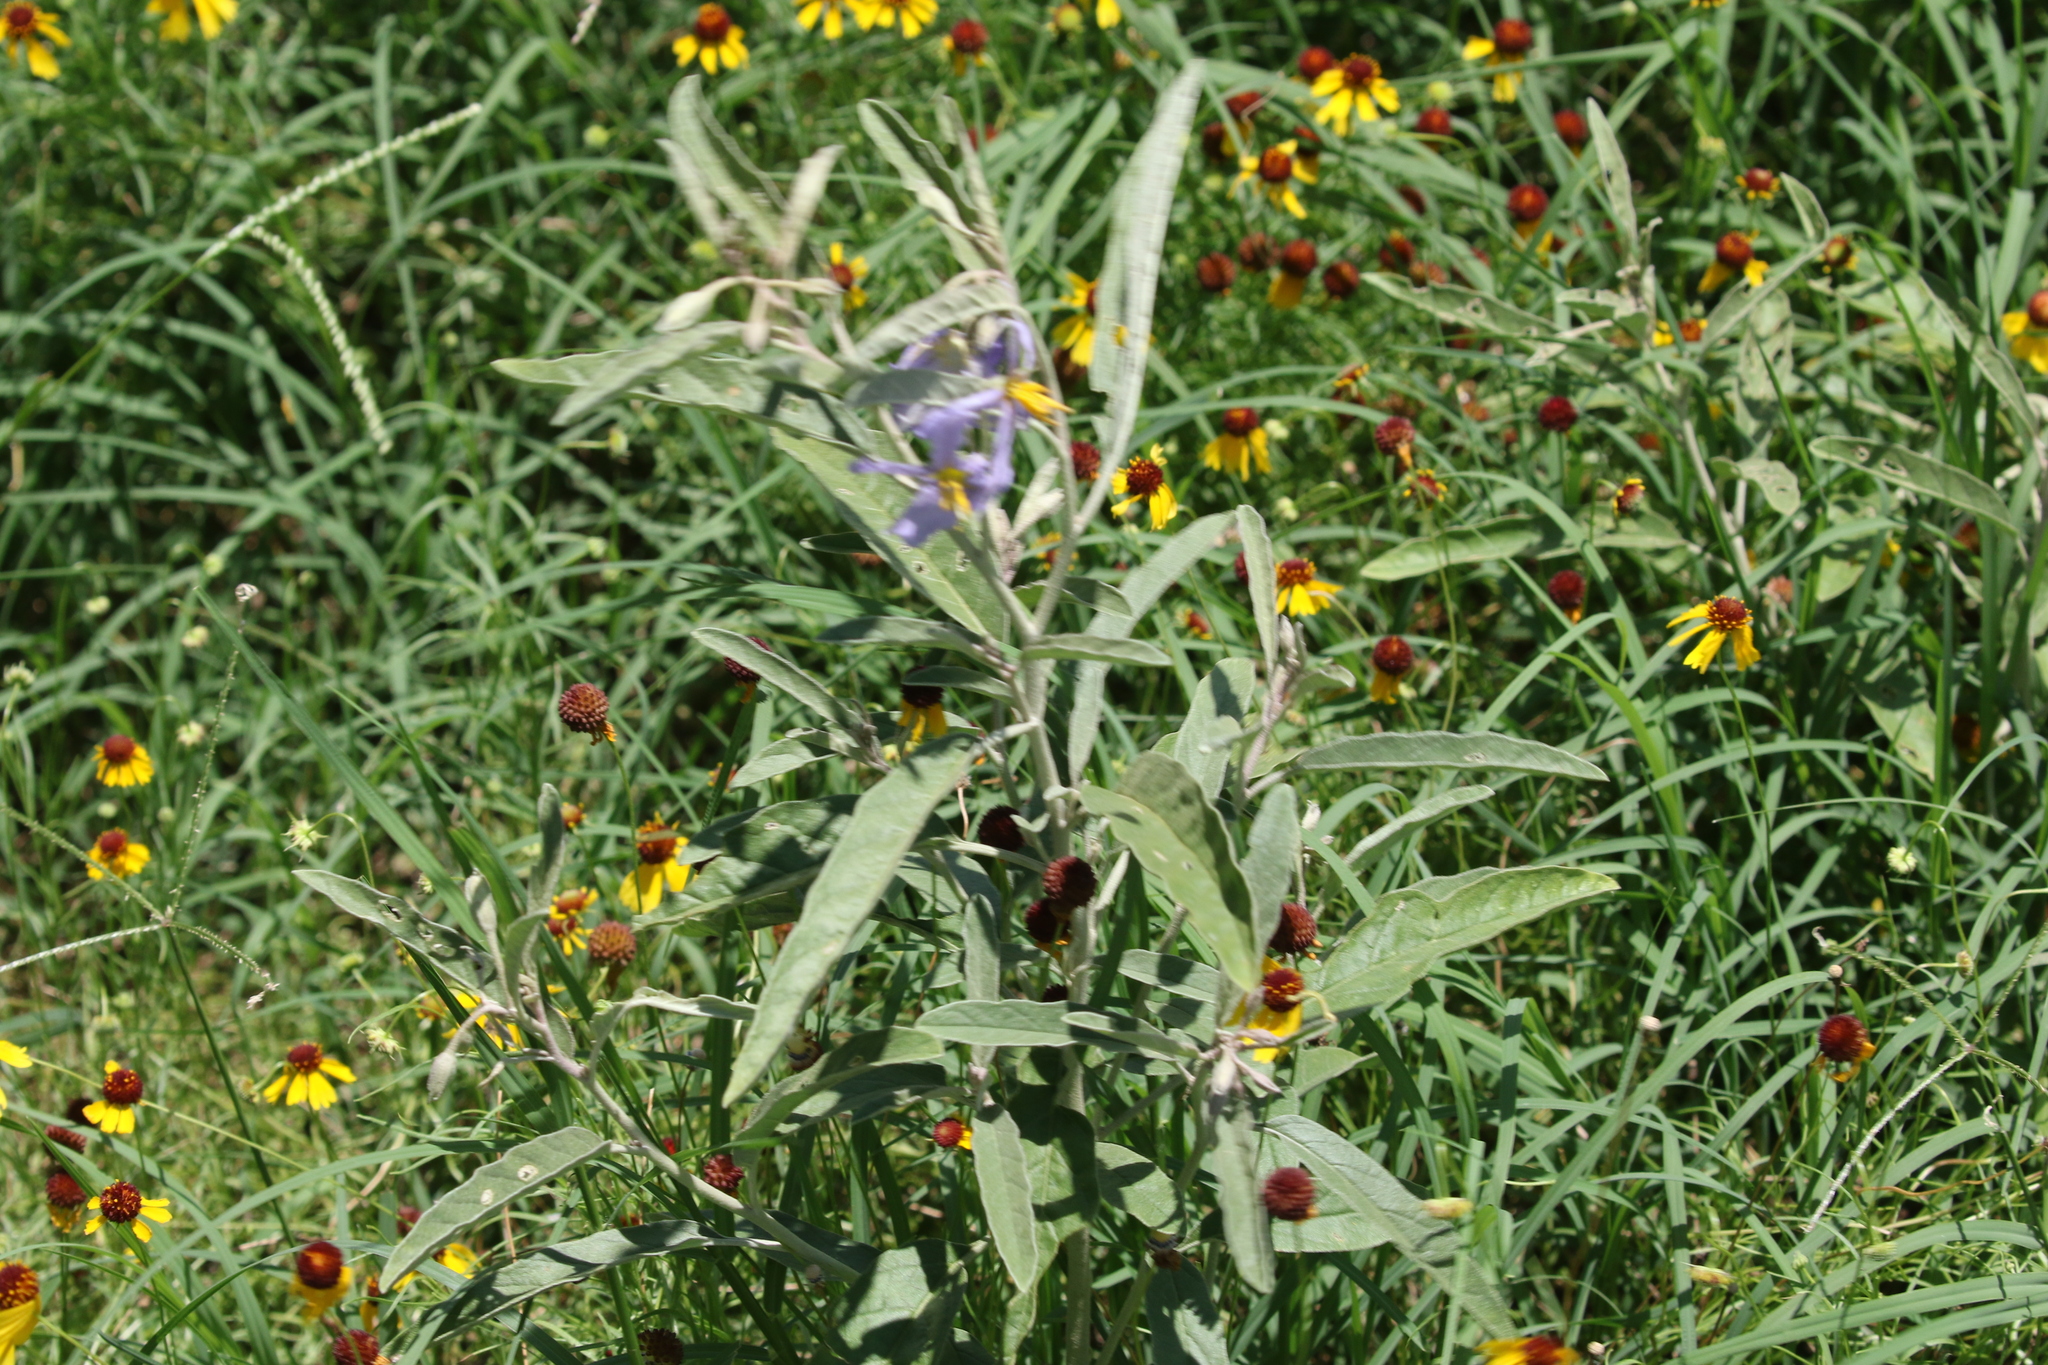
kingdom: Plantae
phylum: Tracheophyta
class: Magnoliopsida
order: Solanales
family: Solanaceae
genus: Solanum
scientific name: Solanum elaeagnifolium
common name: Silverleaf nightshade
